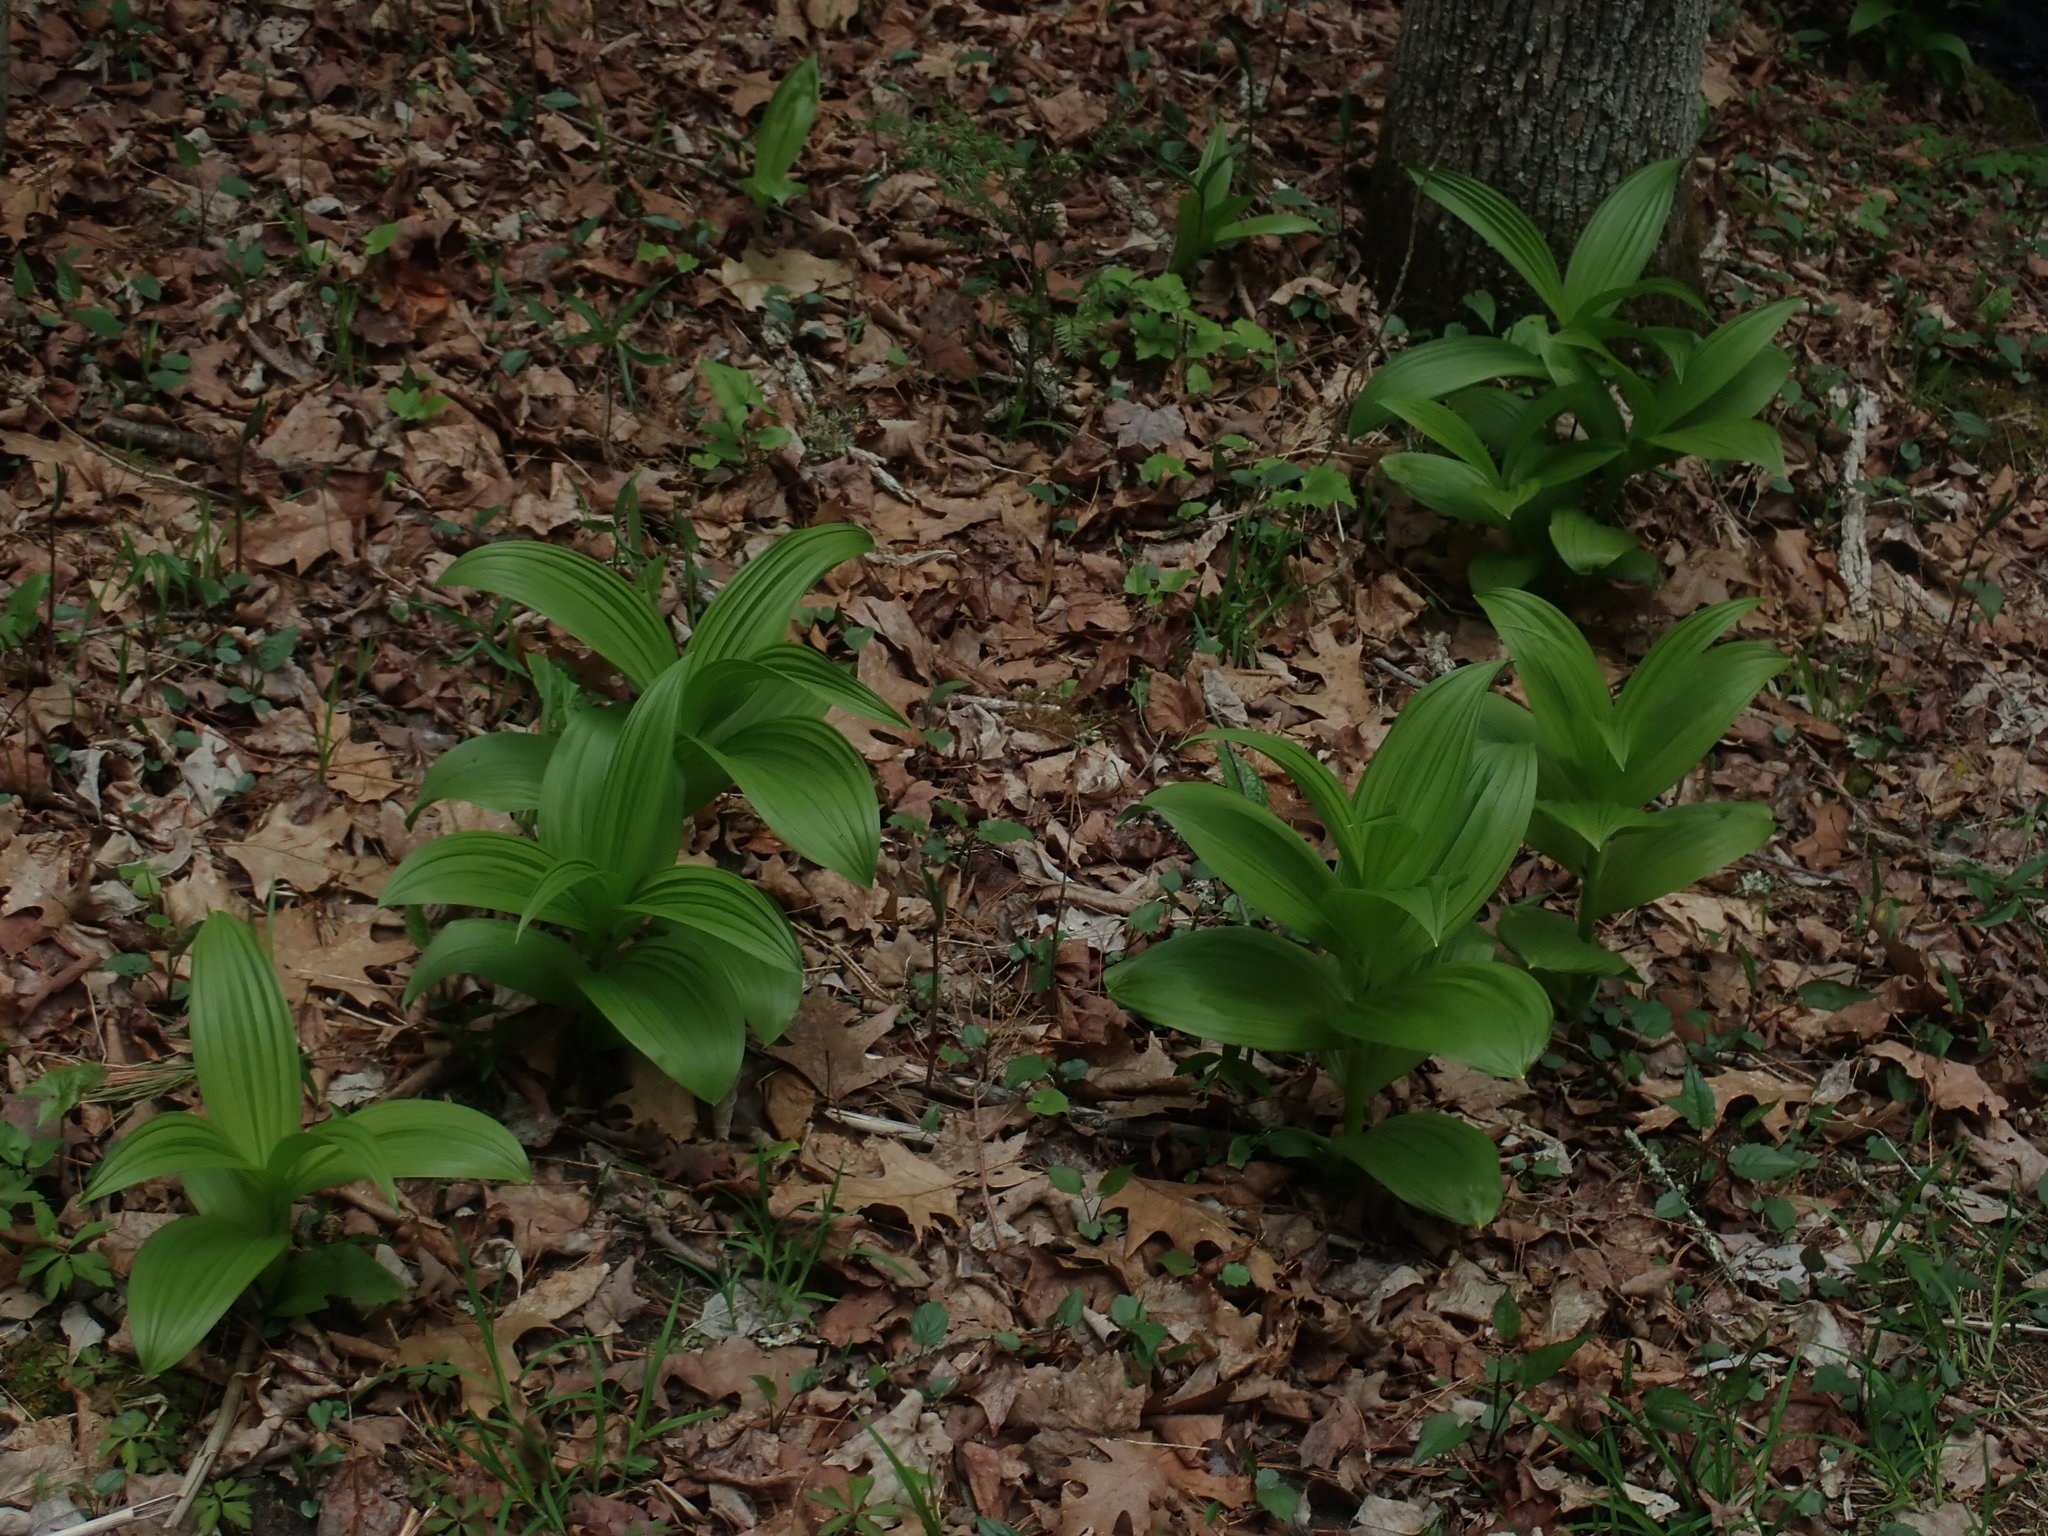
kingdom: Plantae
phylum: Tracheophyta
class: Liliopsida
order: Liliales
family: Melanthiaceae
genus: Veratrum
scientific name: Veratrum viride
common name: American false hellebore
